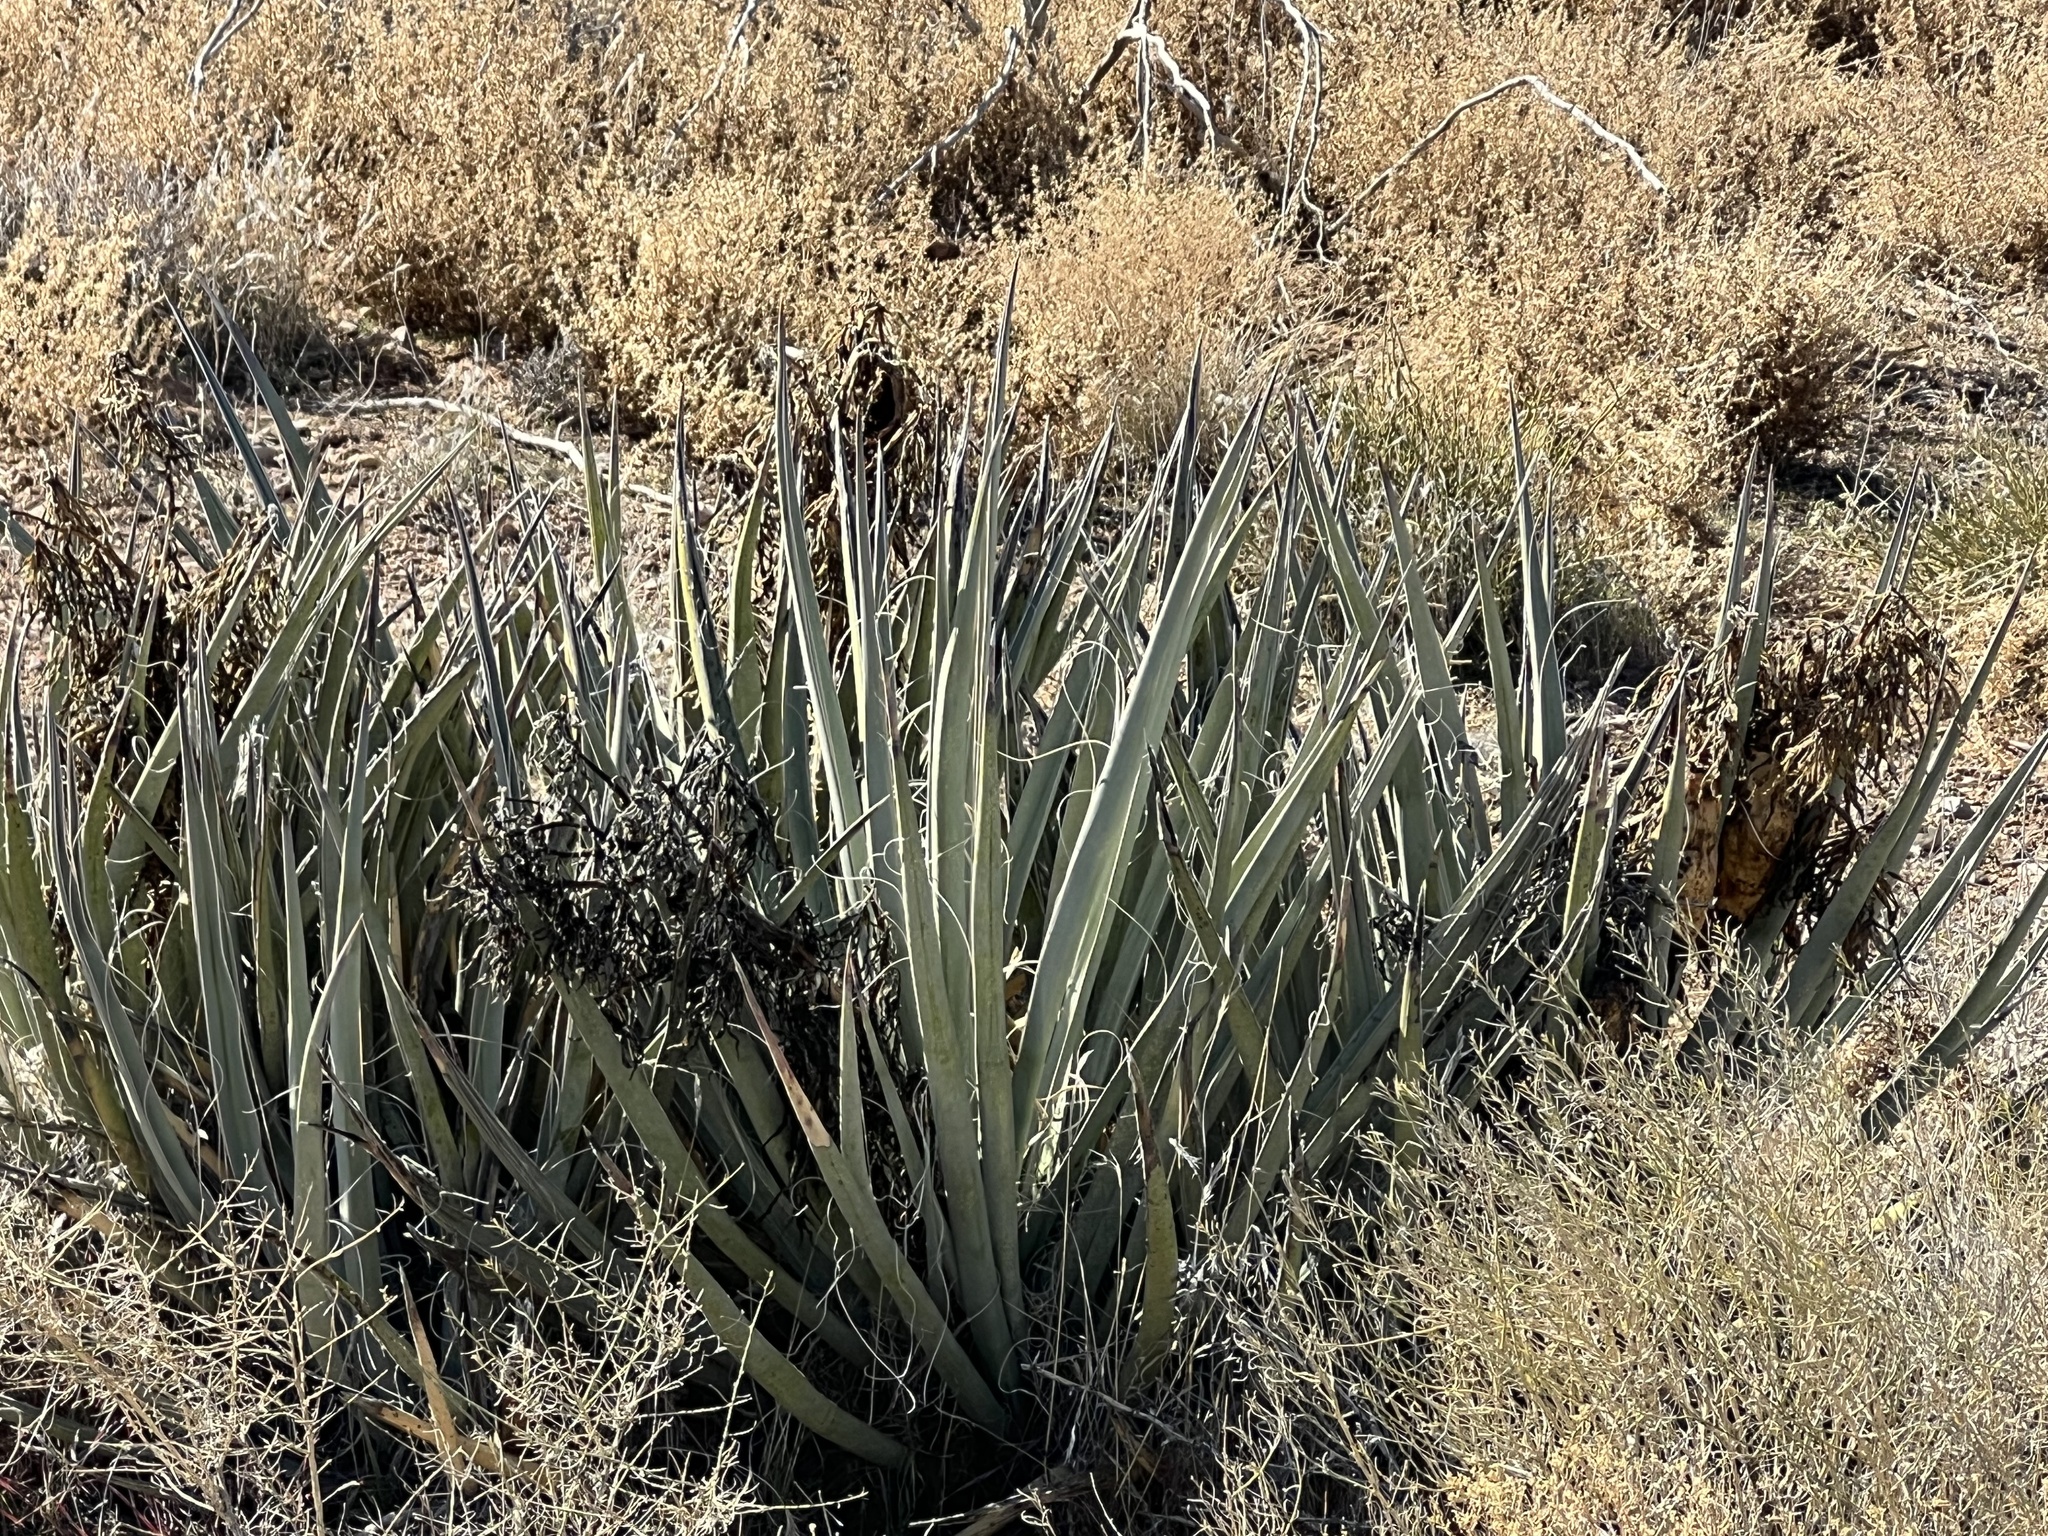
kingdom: Plantae
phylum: Tracheophyta
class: Liliopsida
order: Asparagales
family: Asparagaceae
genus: Yucca
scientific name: Yucca baccata
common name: Banana yucca
